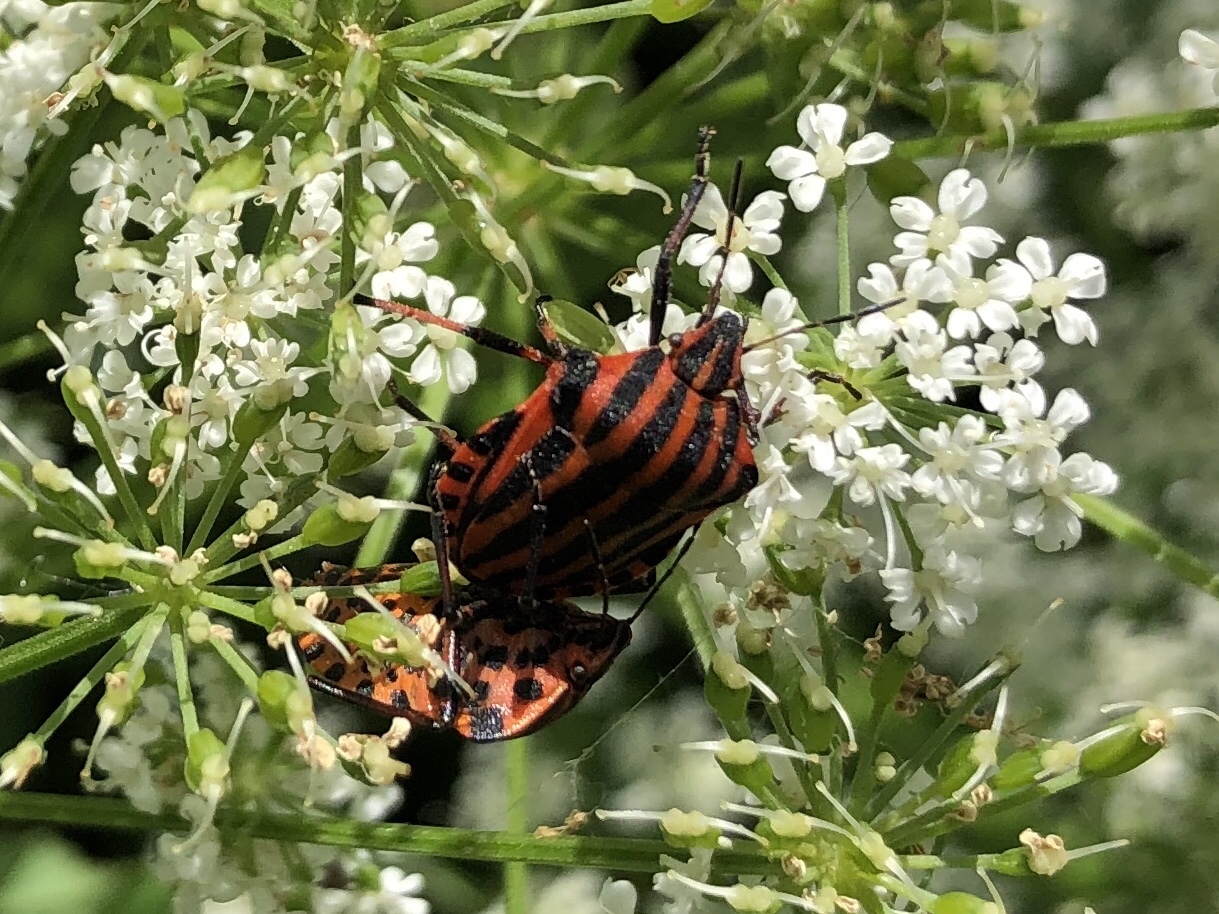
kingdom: Animalia
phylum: Arthropoda
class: Insecta
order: Hemiptera
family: Pentatomidae
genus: Graphosoma
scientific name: Graphosoma italicum
